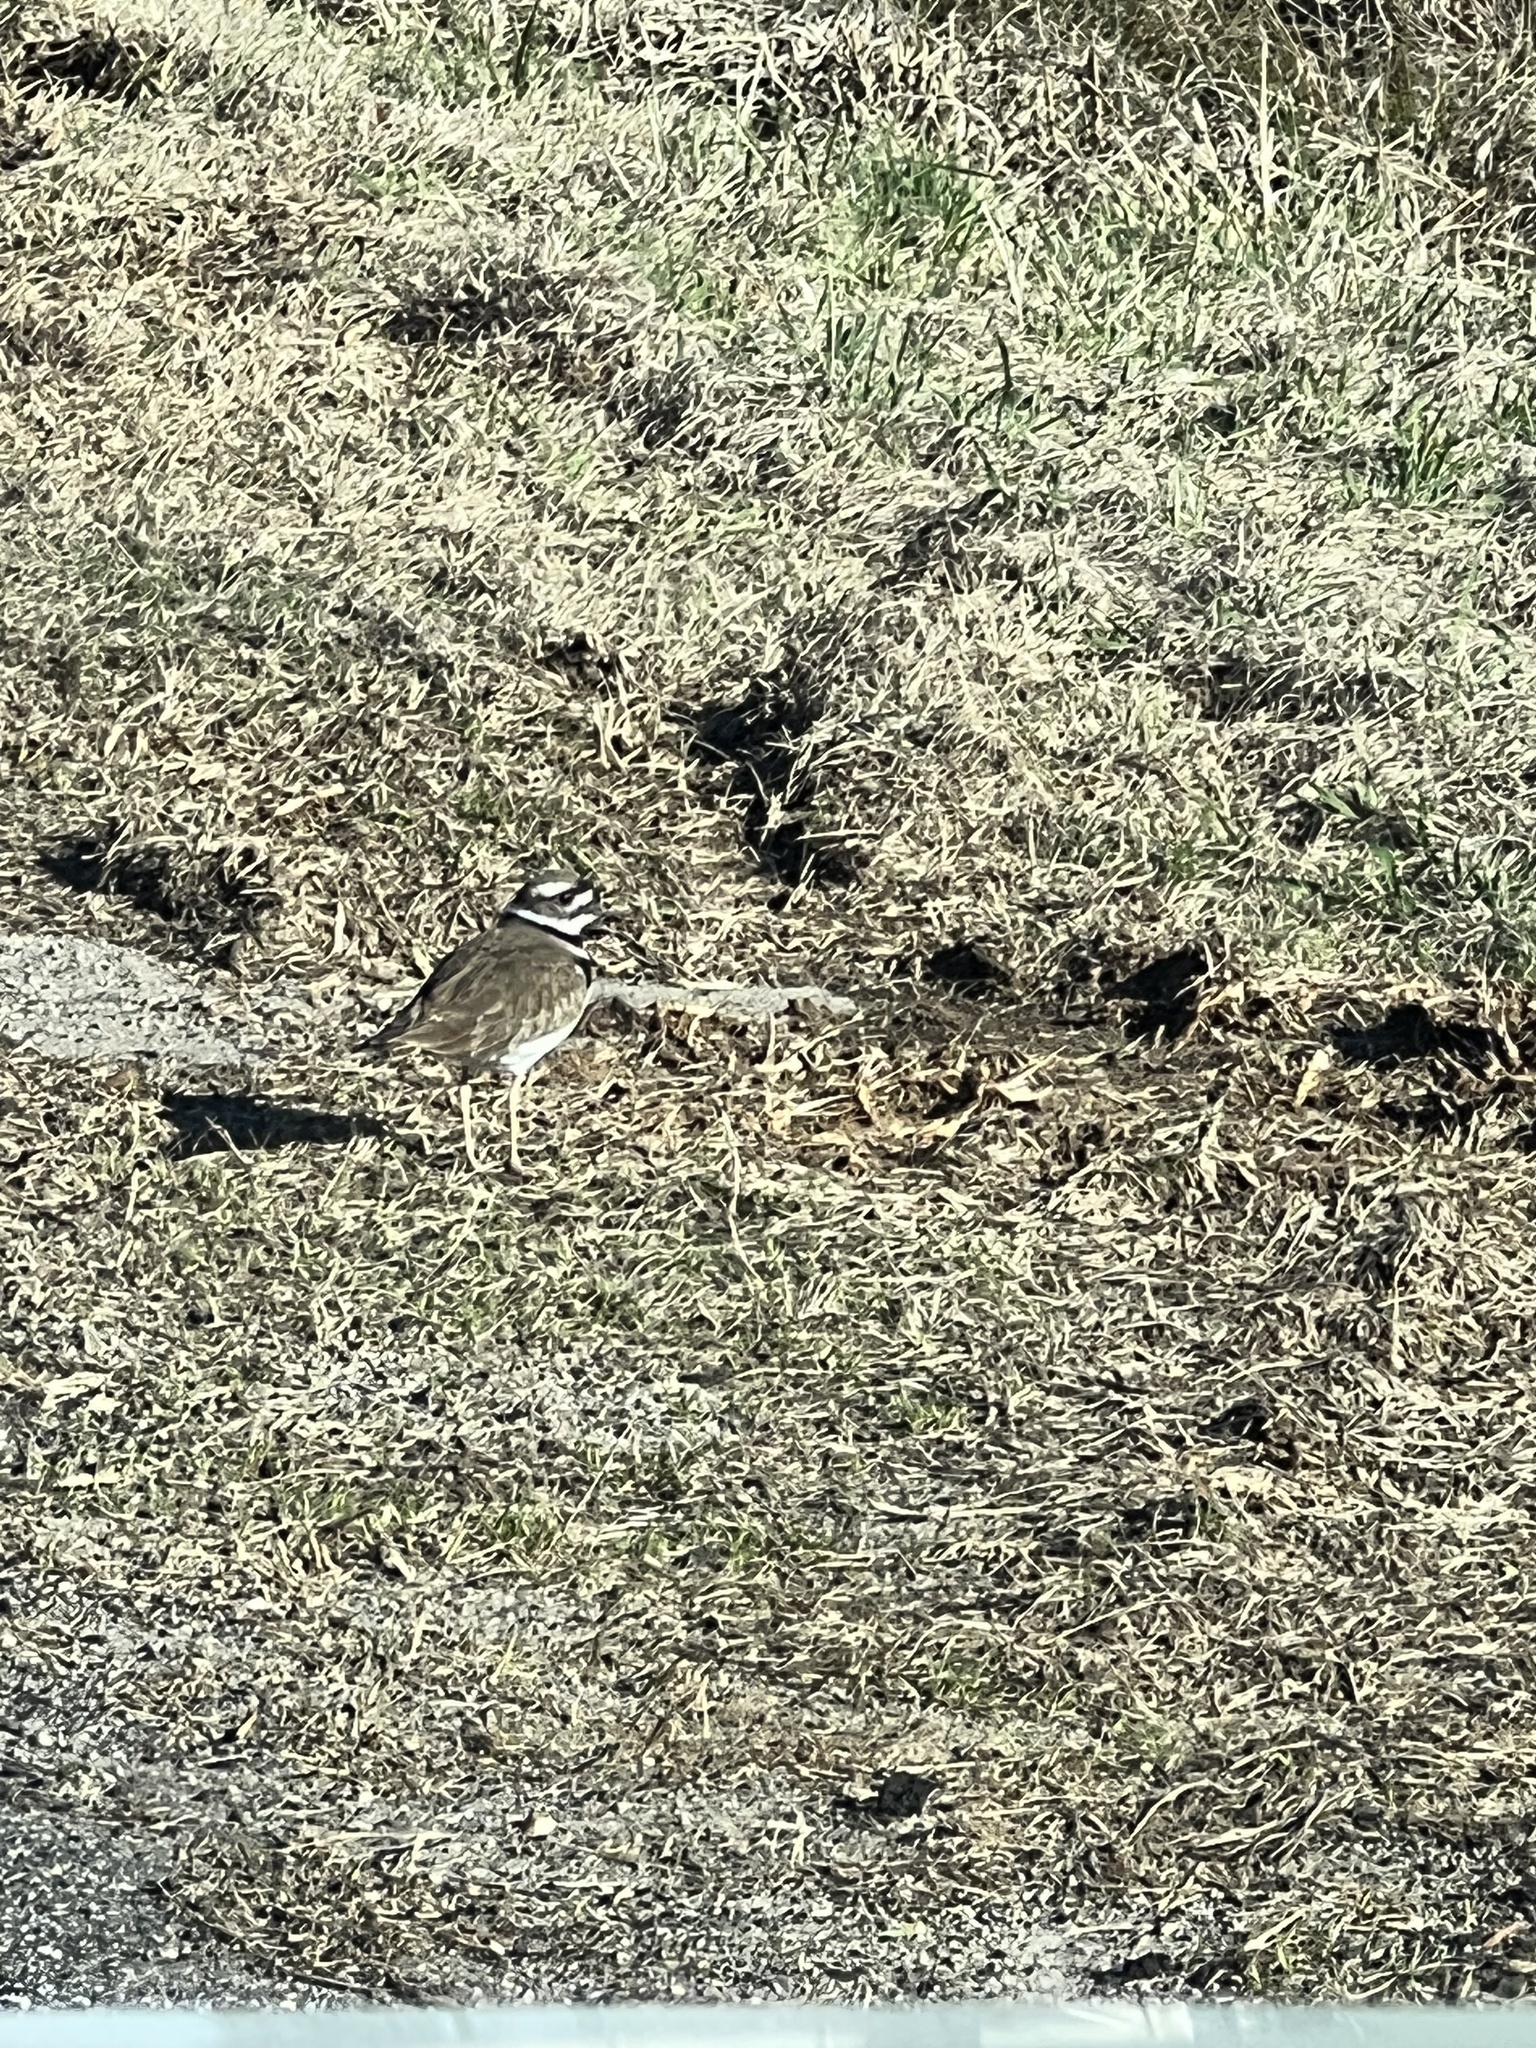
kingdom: Animalia
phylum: Chordata
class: Aves
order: Charadriiformes
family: Charadriidae
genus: Charadrius
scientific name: Charadrius vociferus
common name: Killdeer
